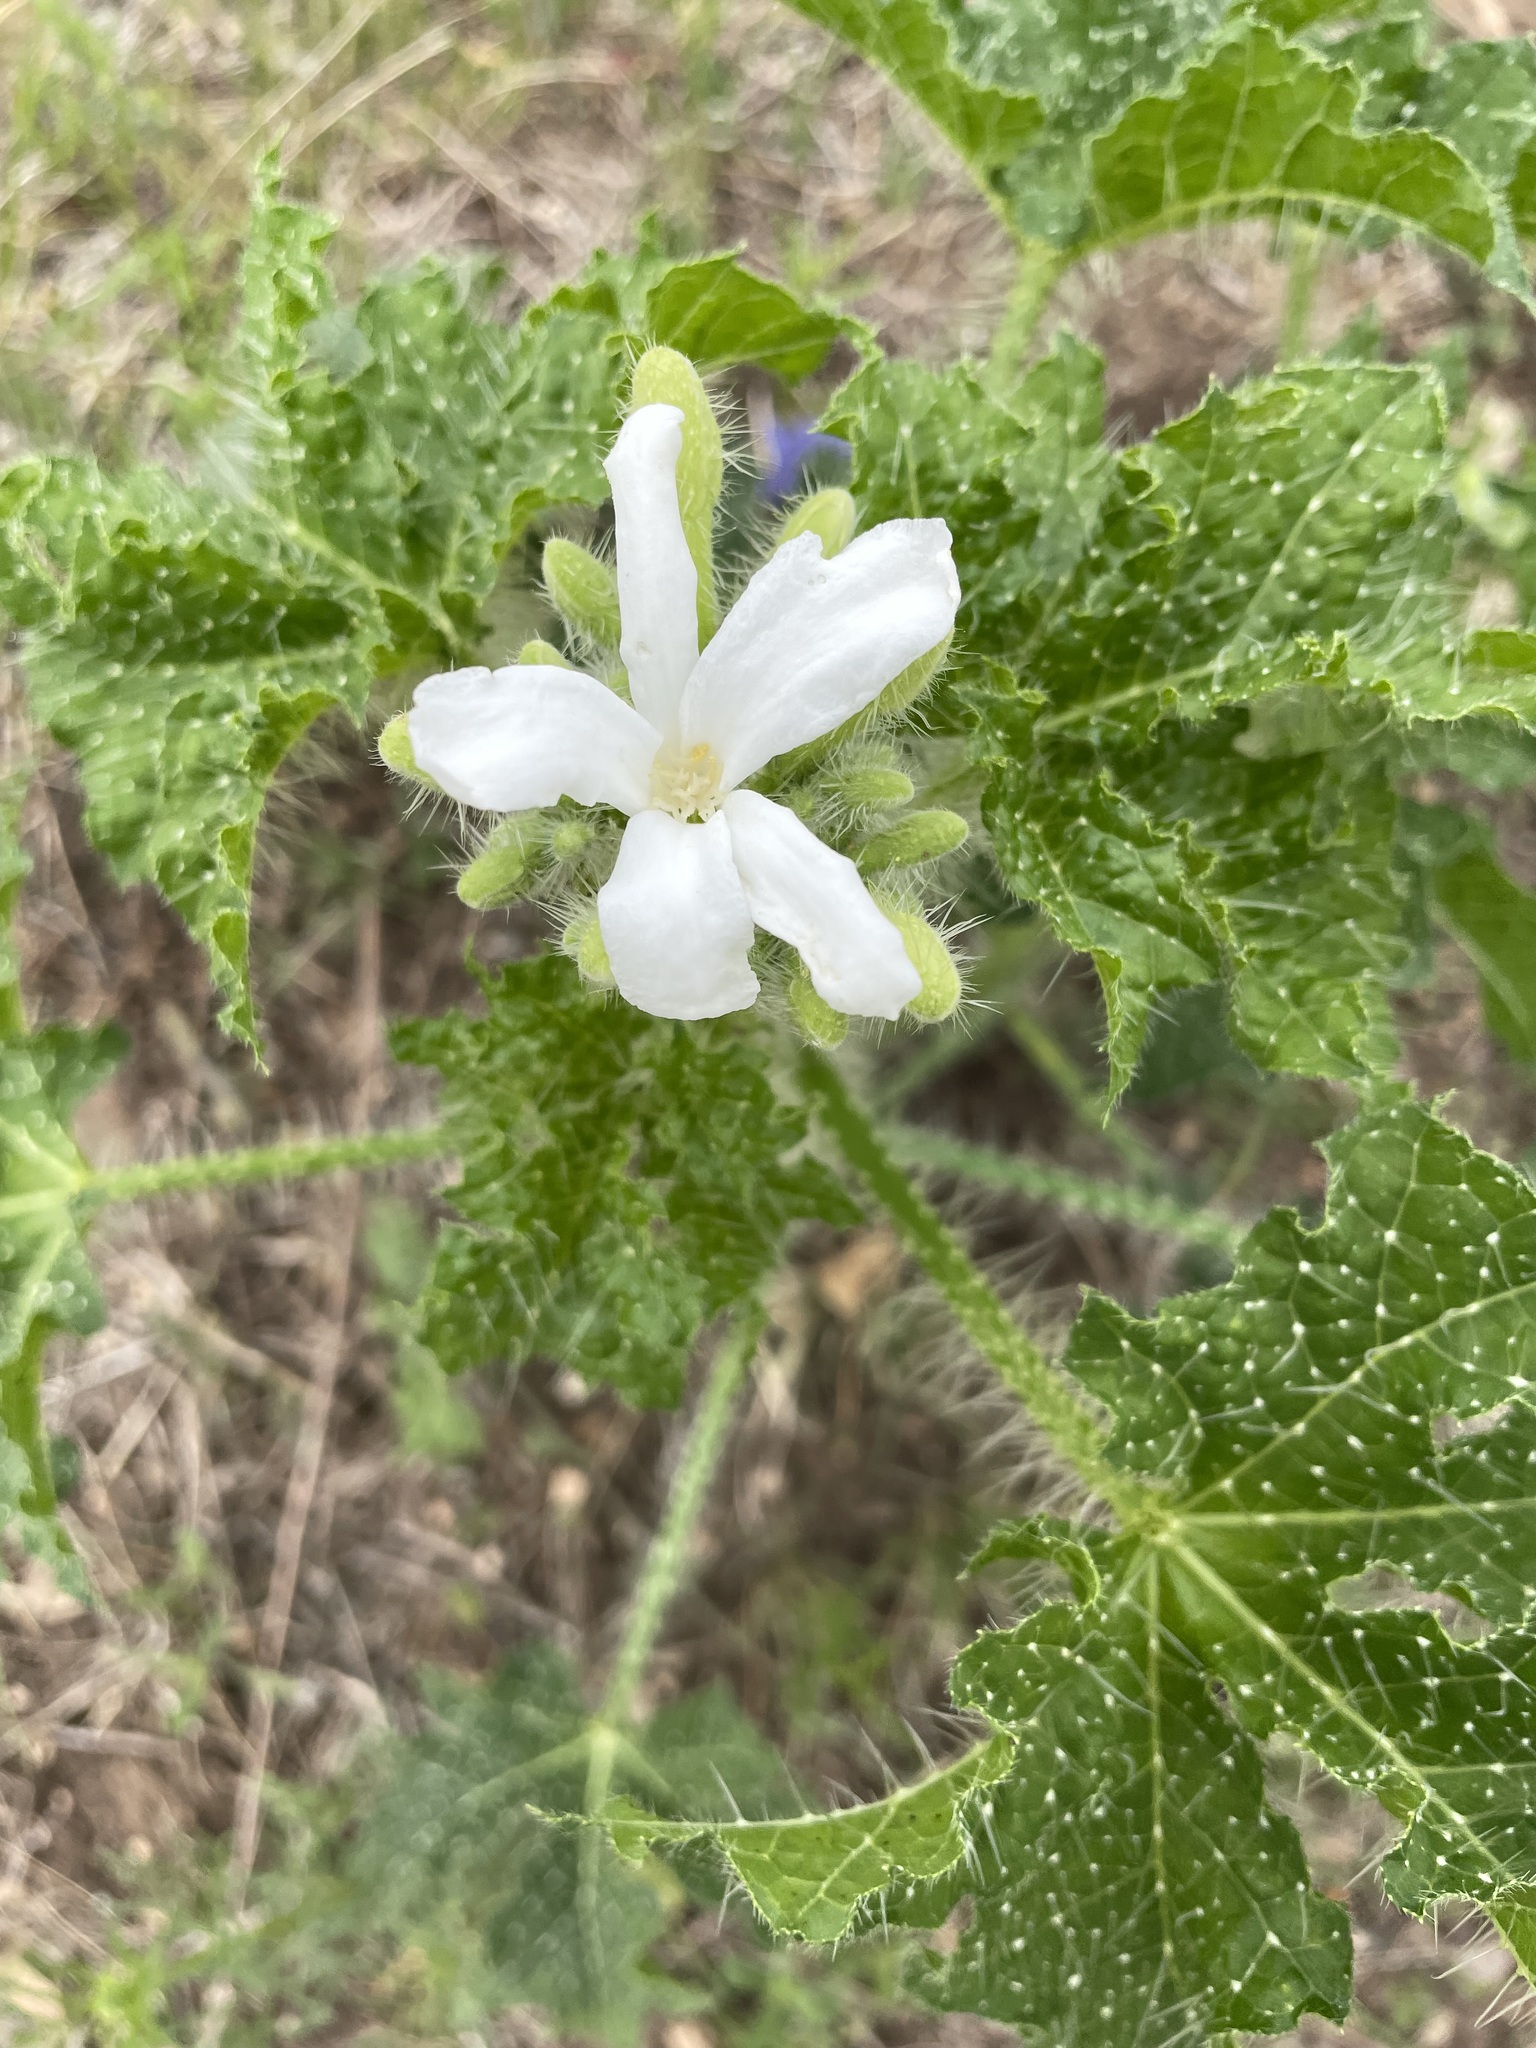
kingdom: Plantae
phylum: Tracheophyta
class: Magnoliopsida
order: Malpighiales
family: Euphorbiaceae
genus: Cnidoscolus
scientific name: Cnidoscolus texanus
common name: Texas bull-nettle
